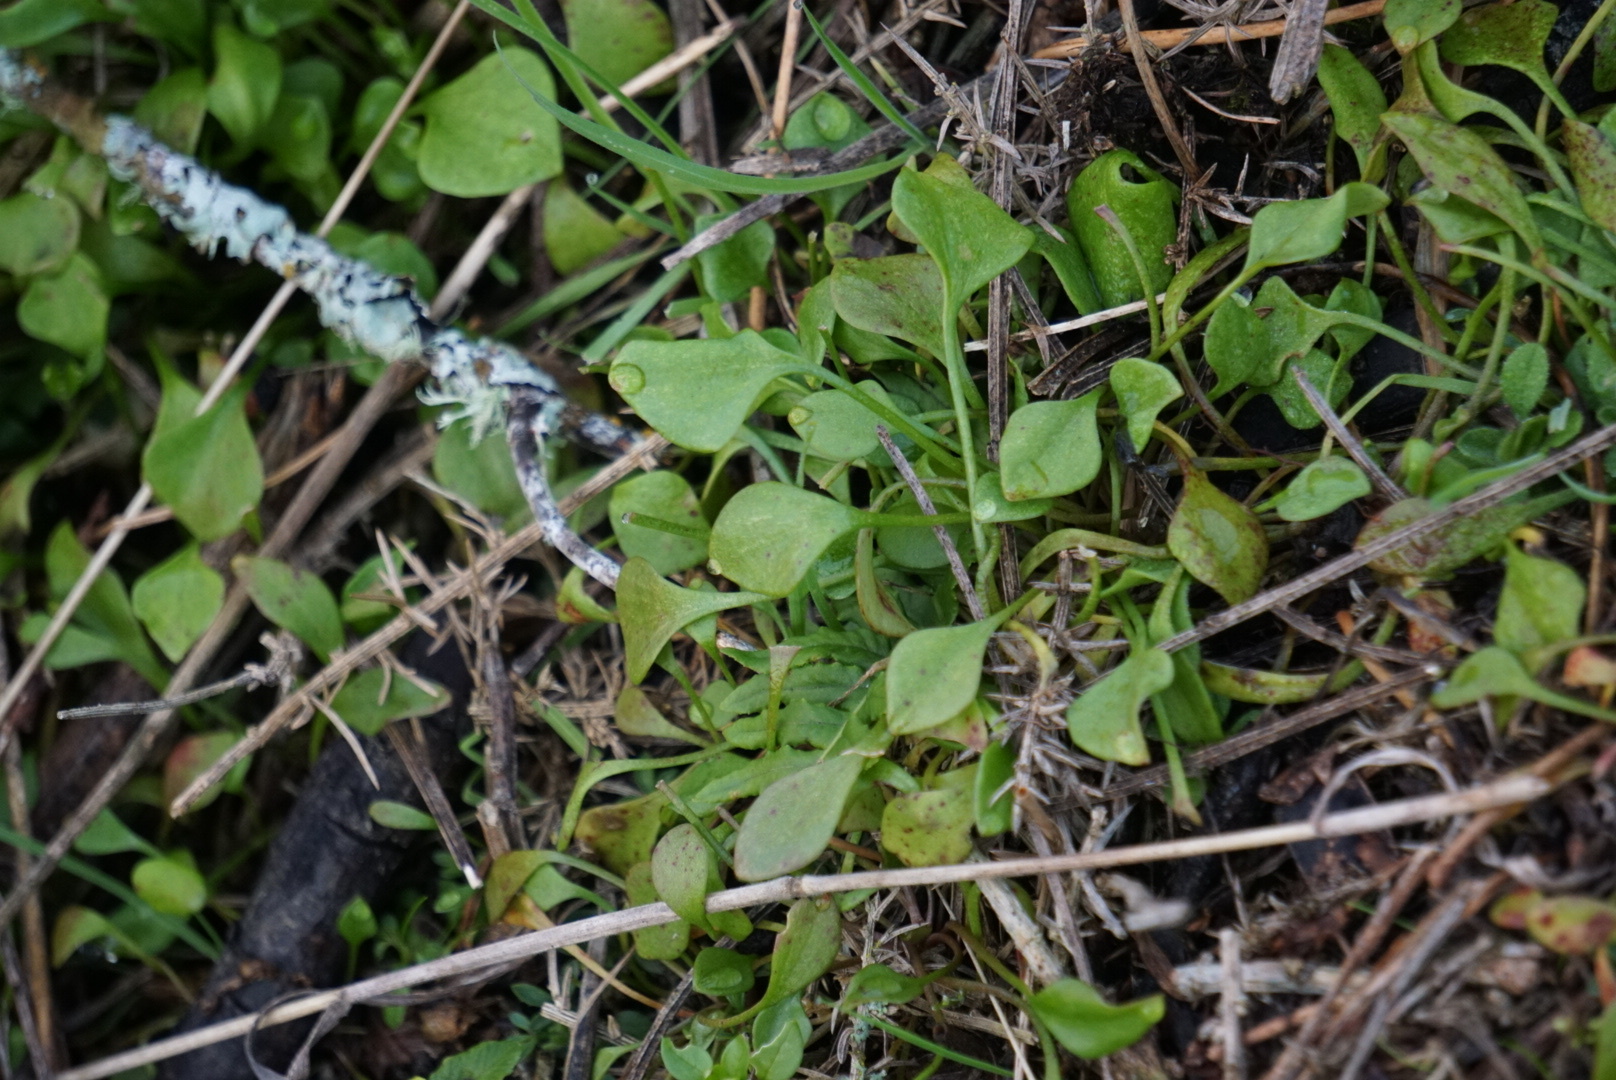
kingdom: Plantae
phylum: Tracheophyta
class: Magnoliopsida
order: Caryophyllales
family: Montiaceae
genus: Claytonia
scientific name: Claytonia perfoliata
